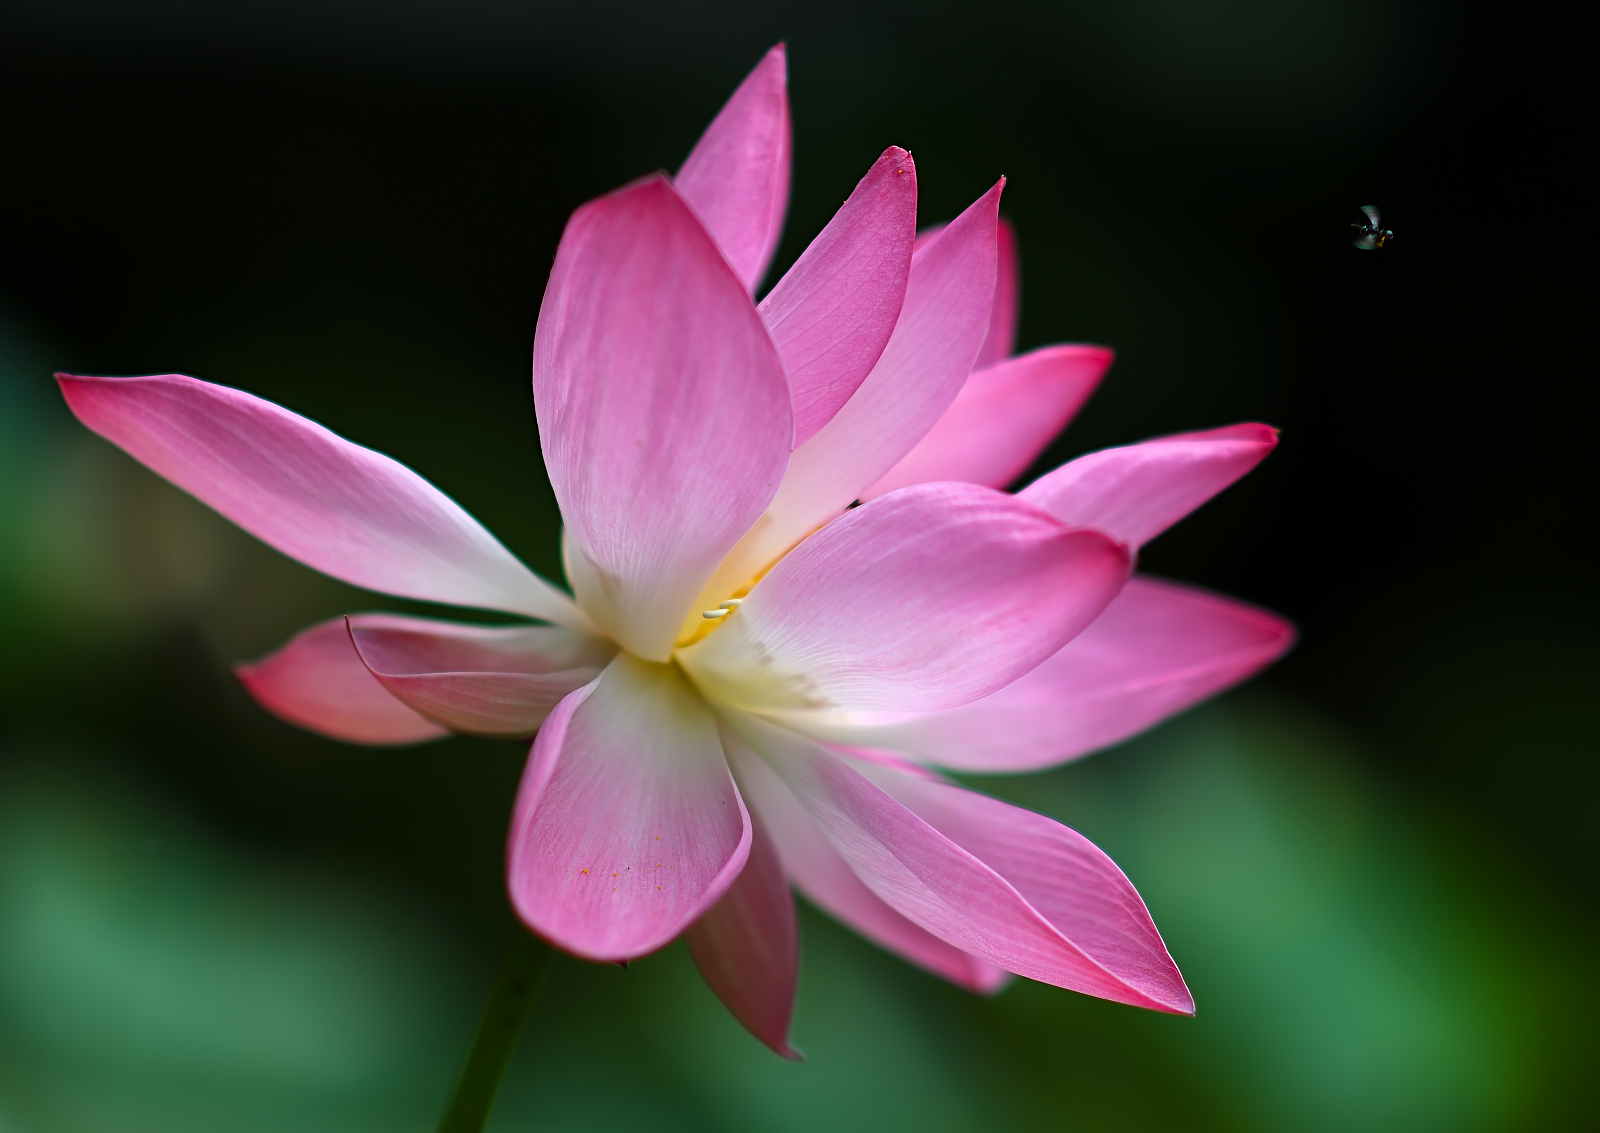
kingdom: Plantae
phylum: Tracheophyta
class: Magnoliopsida
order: Proteales
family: Nelumbonaceae
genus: Nelumbo
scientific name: Nelumbo nucifera
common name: Sacred lotus
